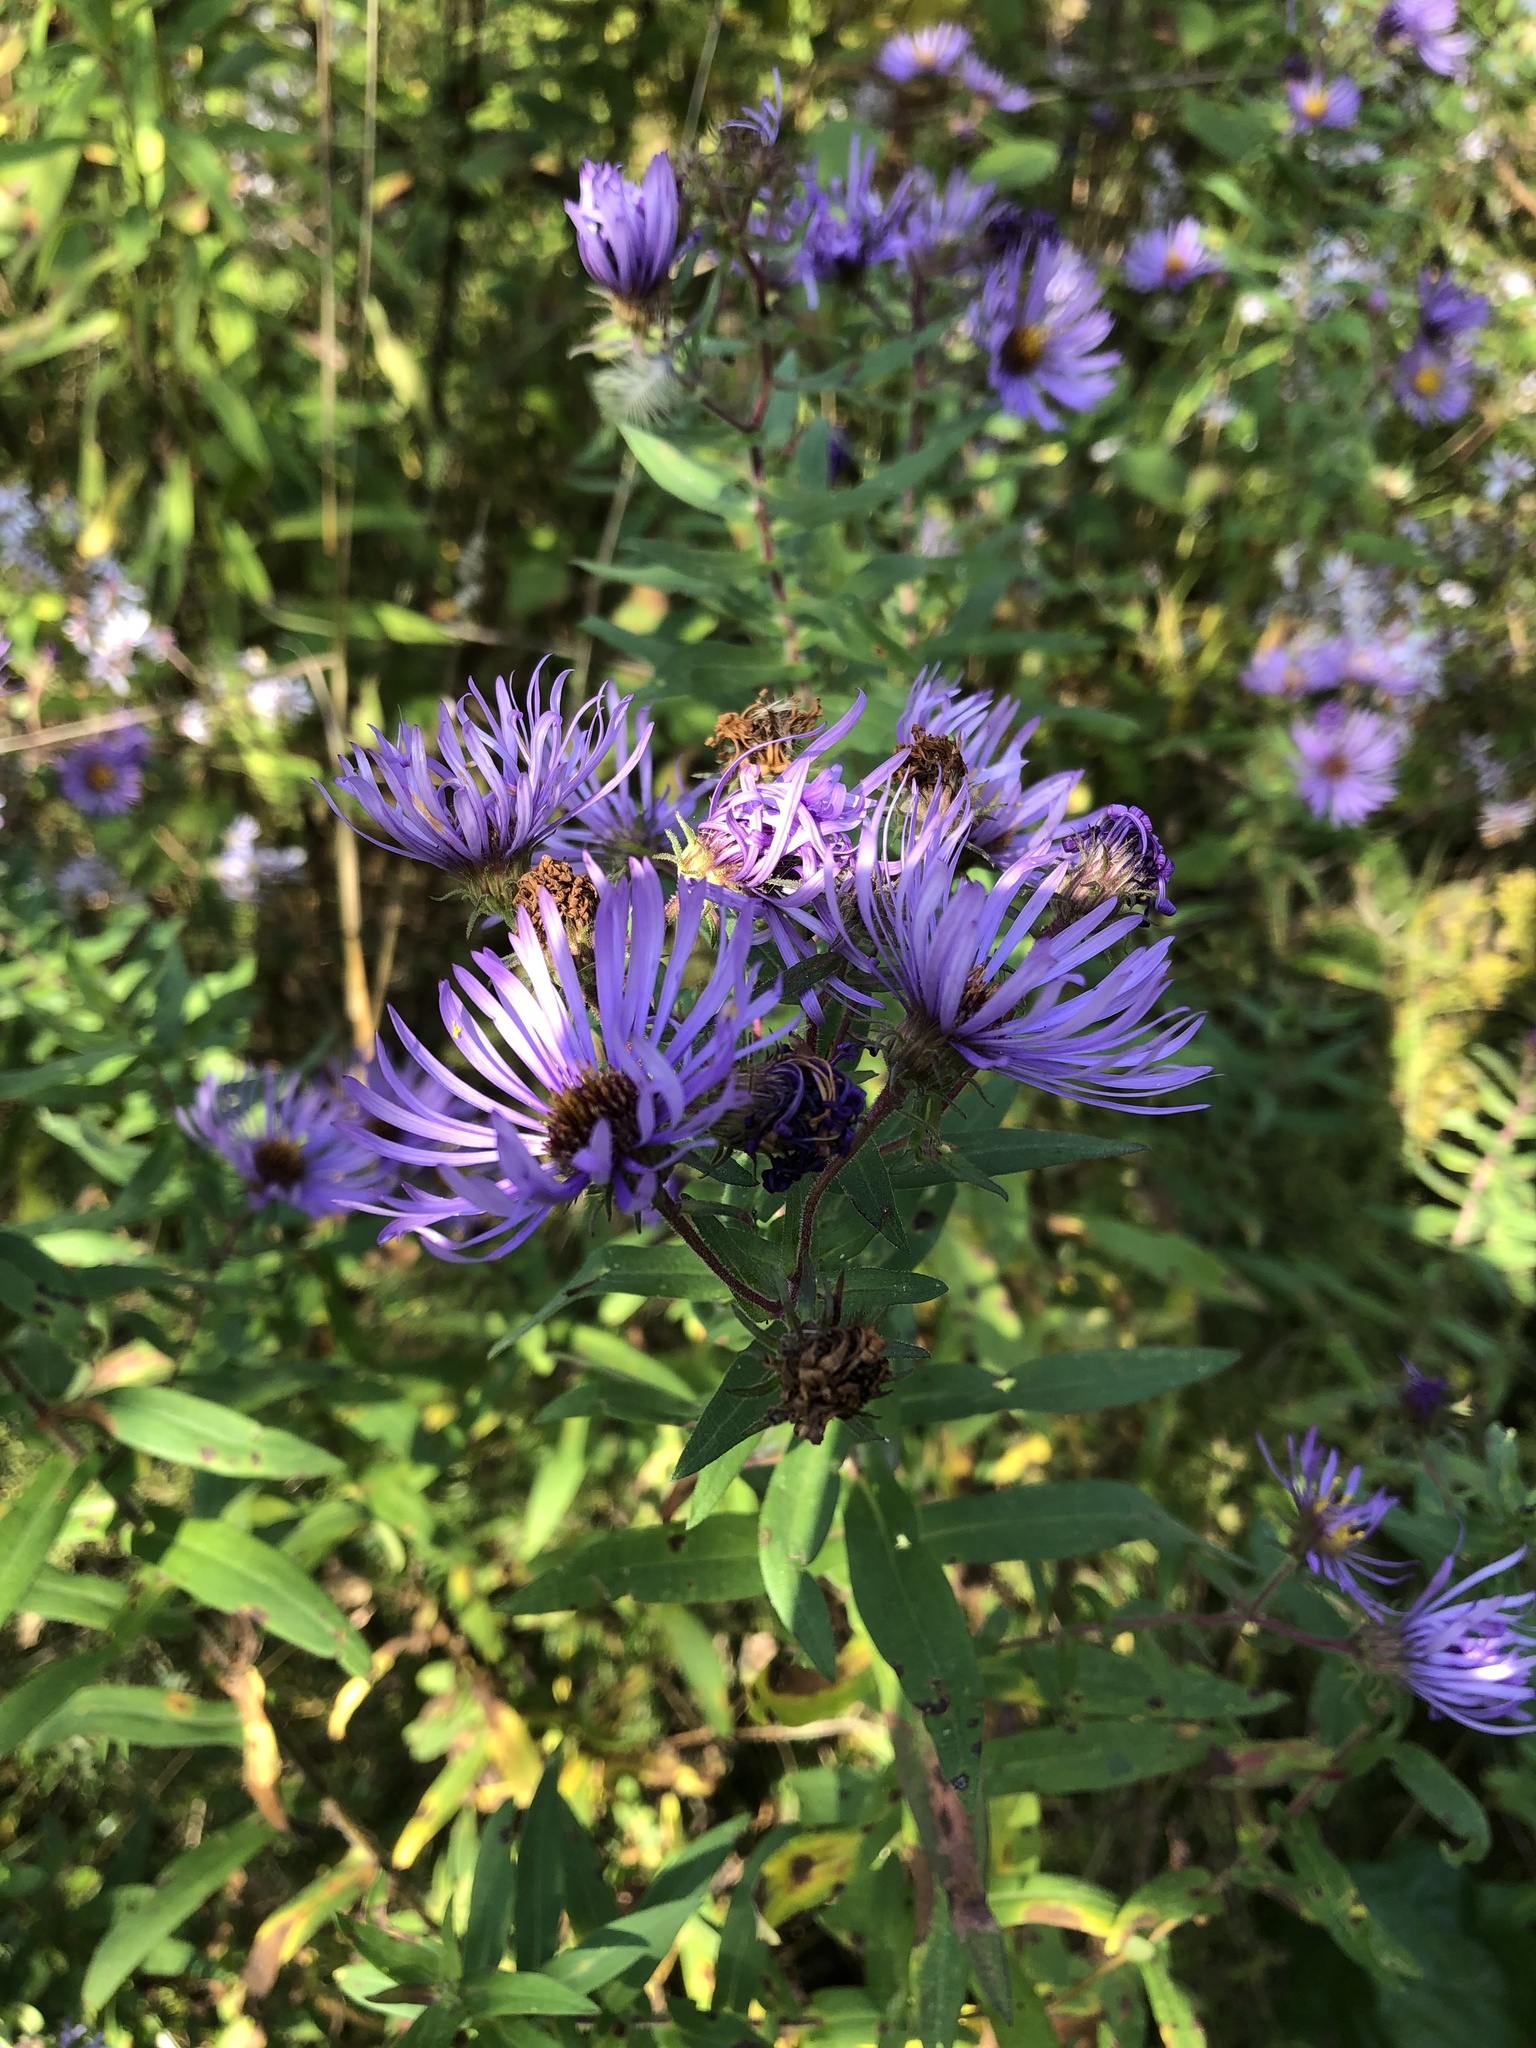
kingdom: Plantae
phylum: Tracheophyta
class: Magnoliopsida
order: Asterales
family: Asteraceae
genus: Symphyotrichum
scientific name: Symphyotrichum novae-angliae
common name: Michaelmas daisy
